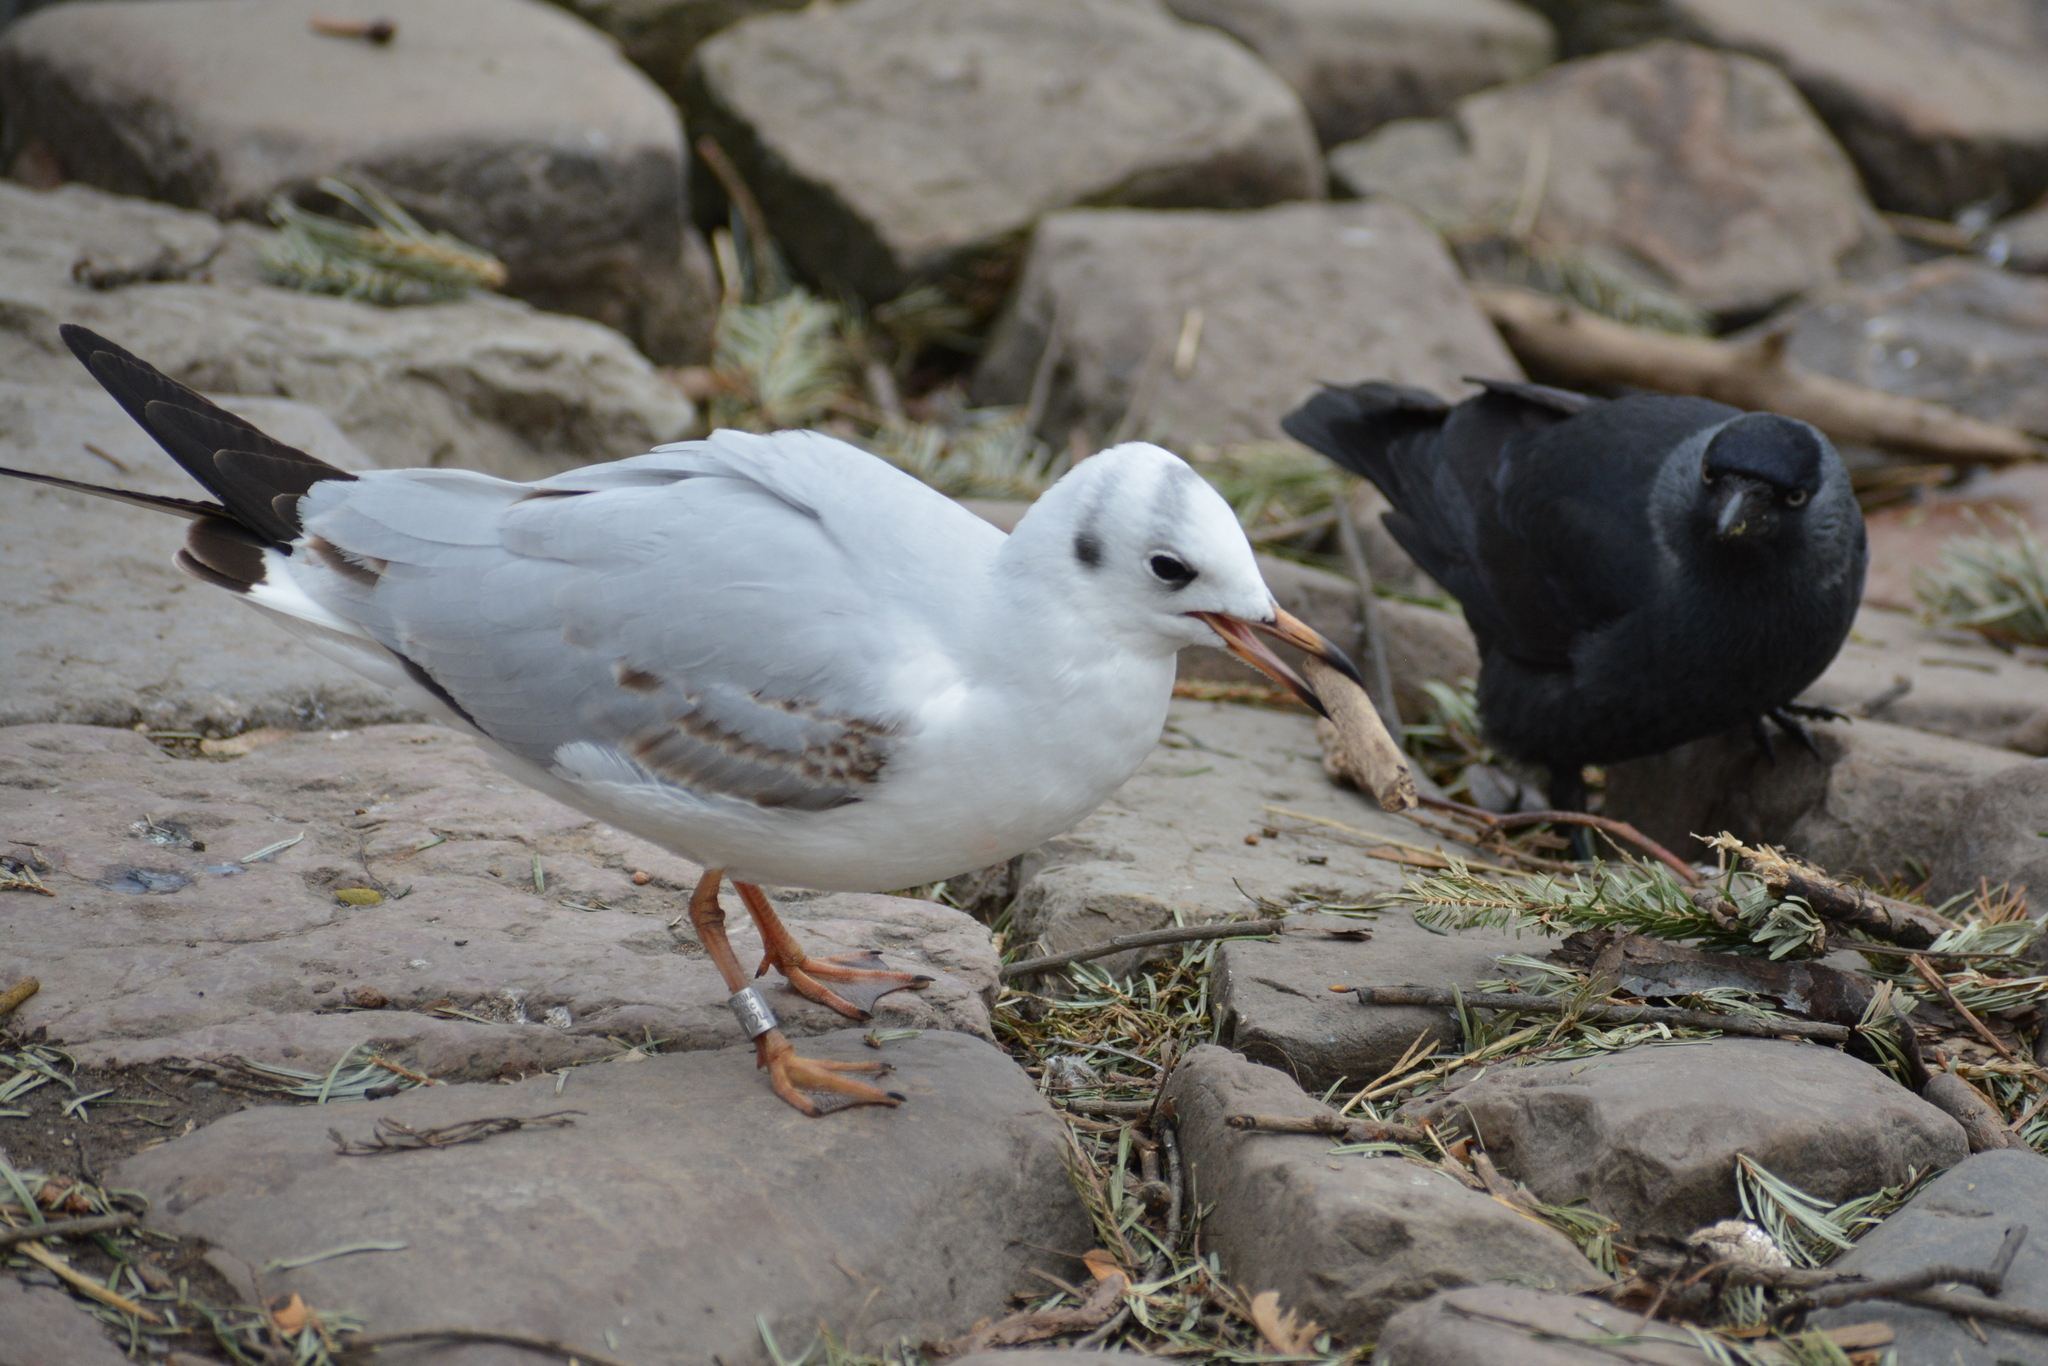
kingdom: Animalia
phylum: Chordata
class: Aves
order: Charadriiformes
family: Laridae
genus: Chroicocephalus
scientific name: Chroicocephalus ridibundus
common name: Black-headed gull
